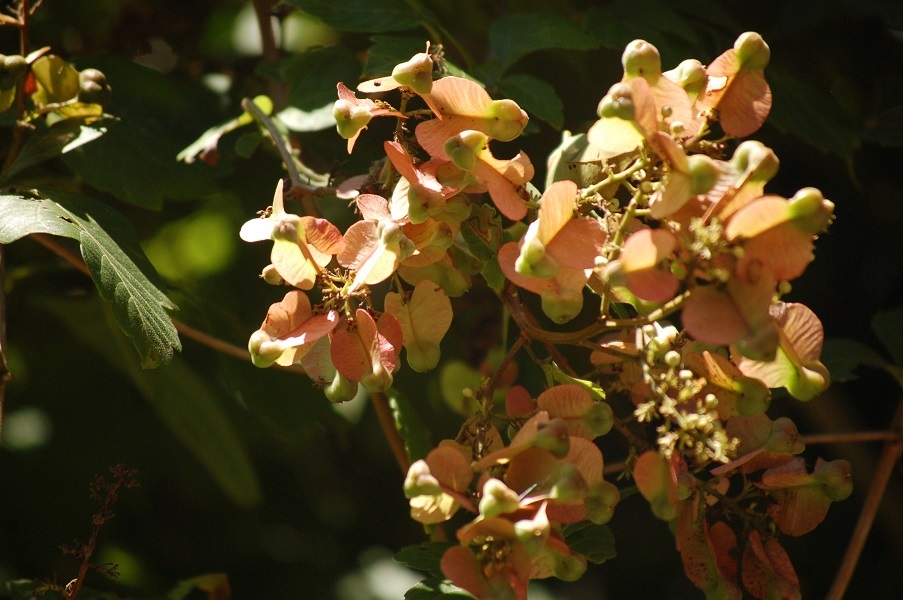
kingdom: Plantae
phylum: Tracheophyta
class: Magnoliopsida
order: Sapindales
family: Sapindaceae
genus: Serjania
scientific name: Serjania triquetra
